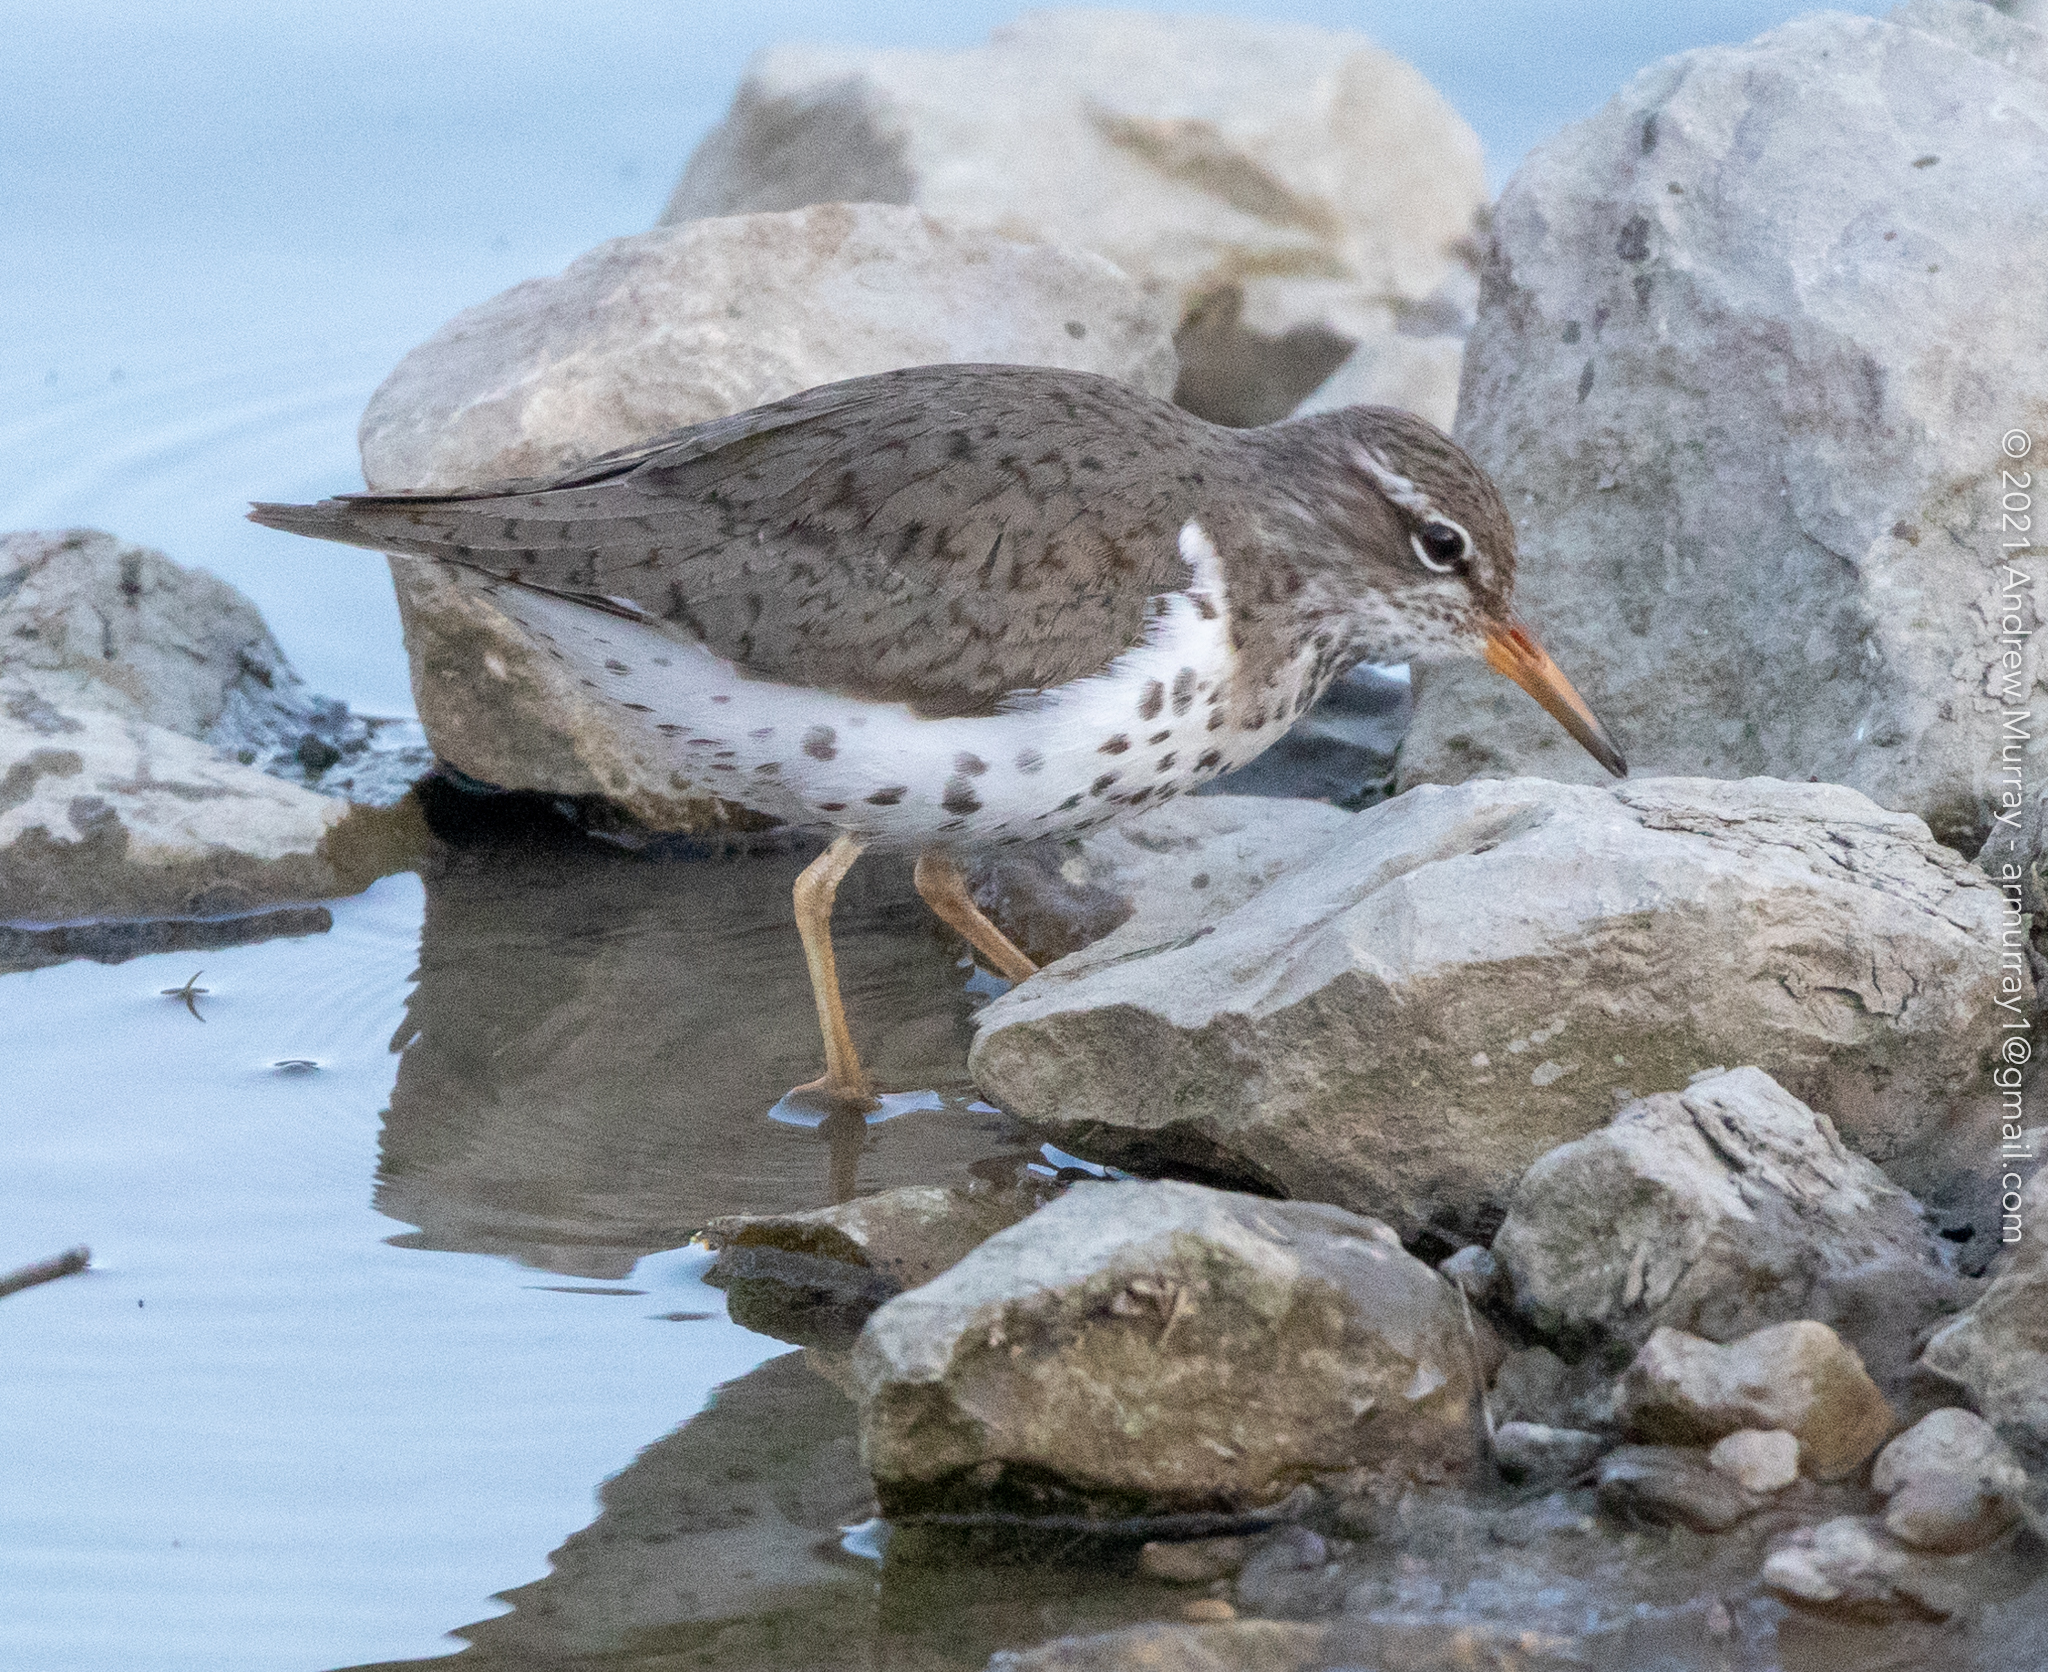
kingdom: Animalia
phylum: Chordata
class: Aves
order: Charadriiformes
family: Scolopacidae
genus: Actitis
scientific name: Actitis macularius
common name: Spotted sandpiper
